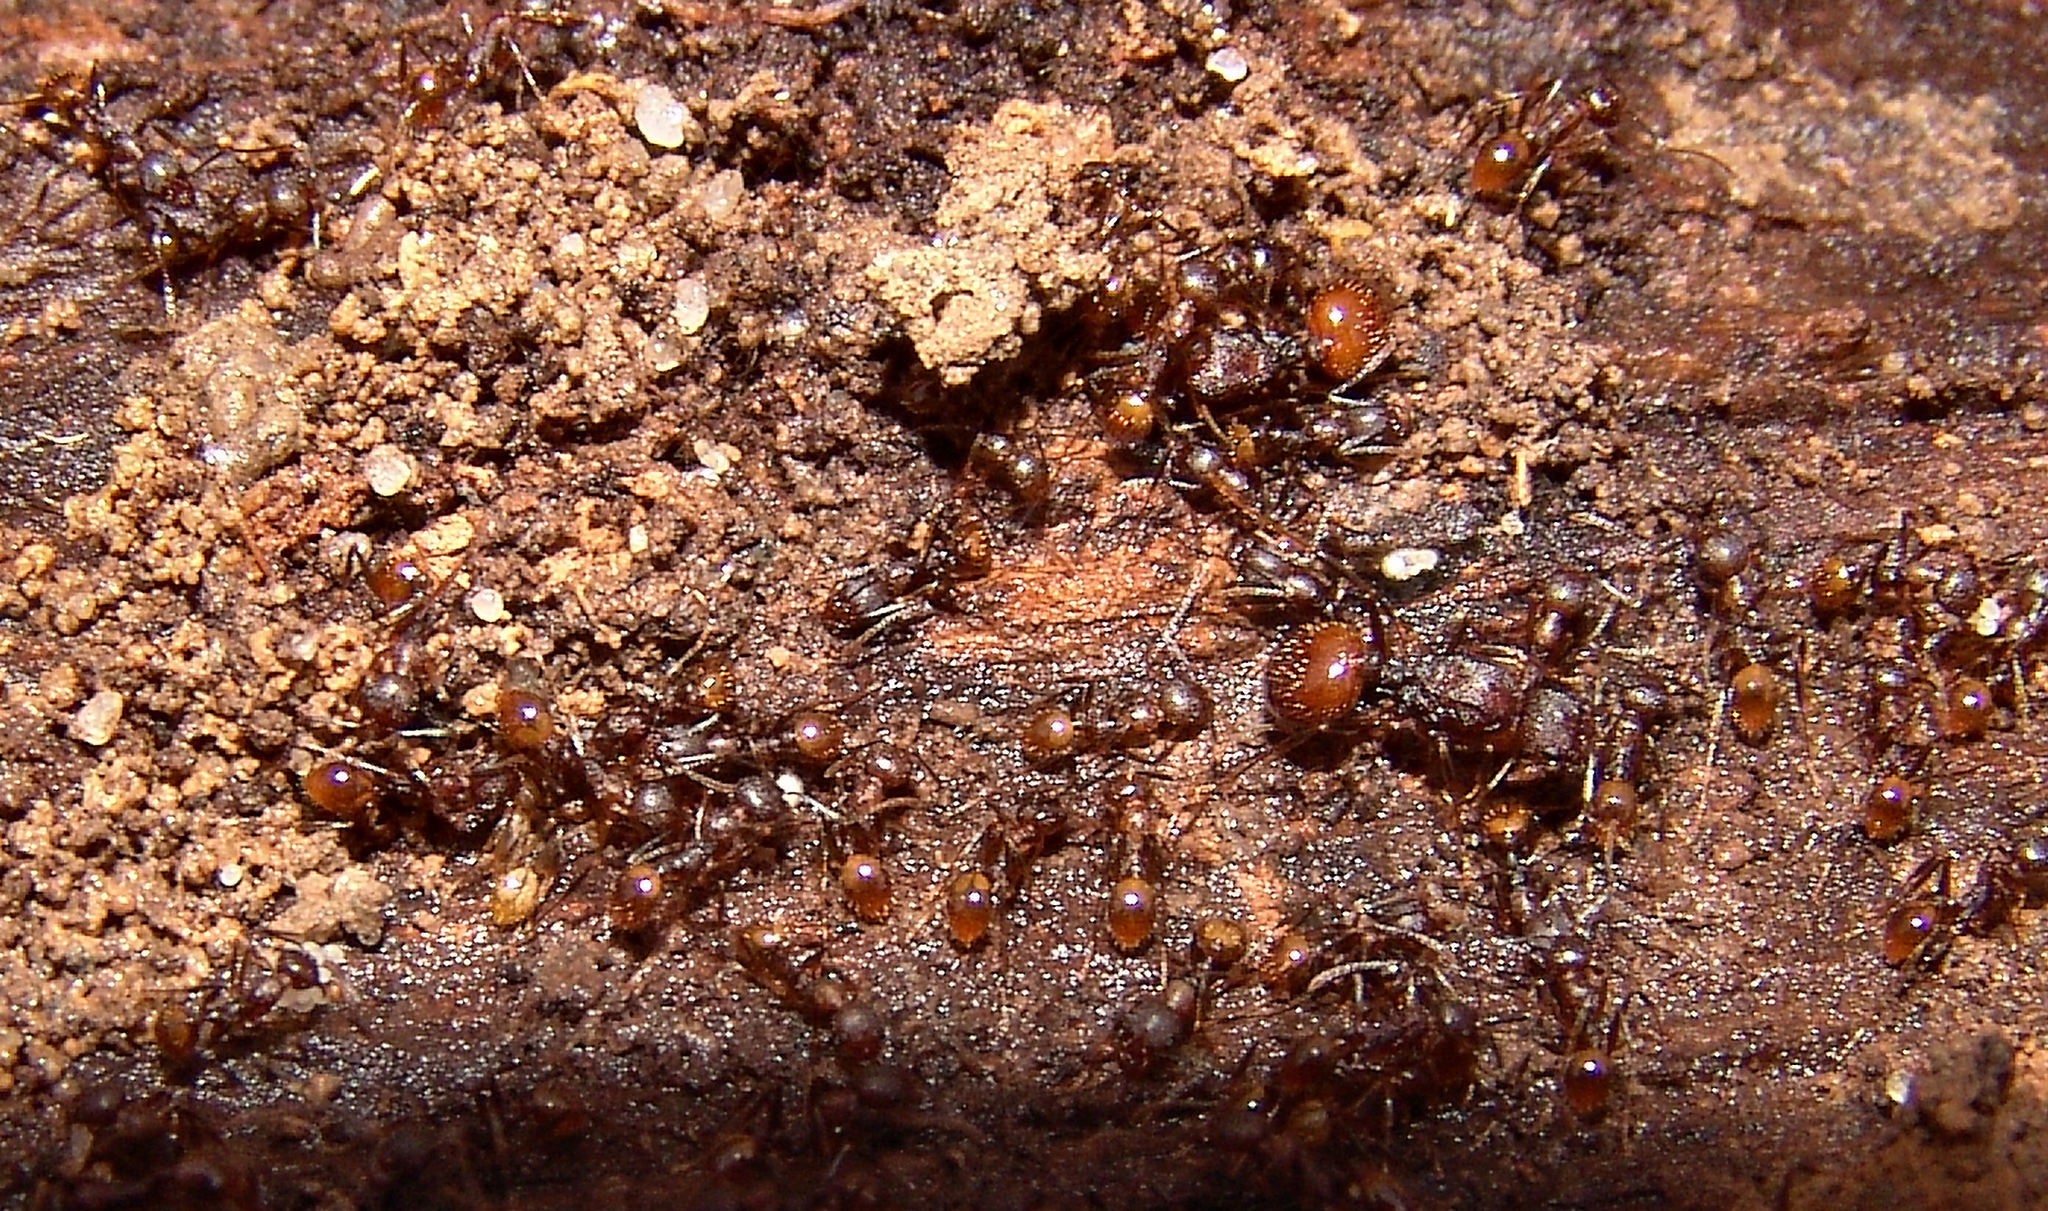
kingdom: Animalia
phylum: Arthropoda
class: Insecta
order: Hymenoptera
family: Formicidae
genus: Aphaenogaster
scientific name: Aphaenogaster fulva
